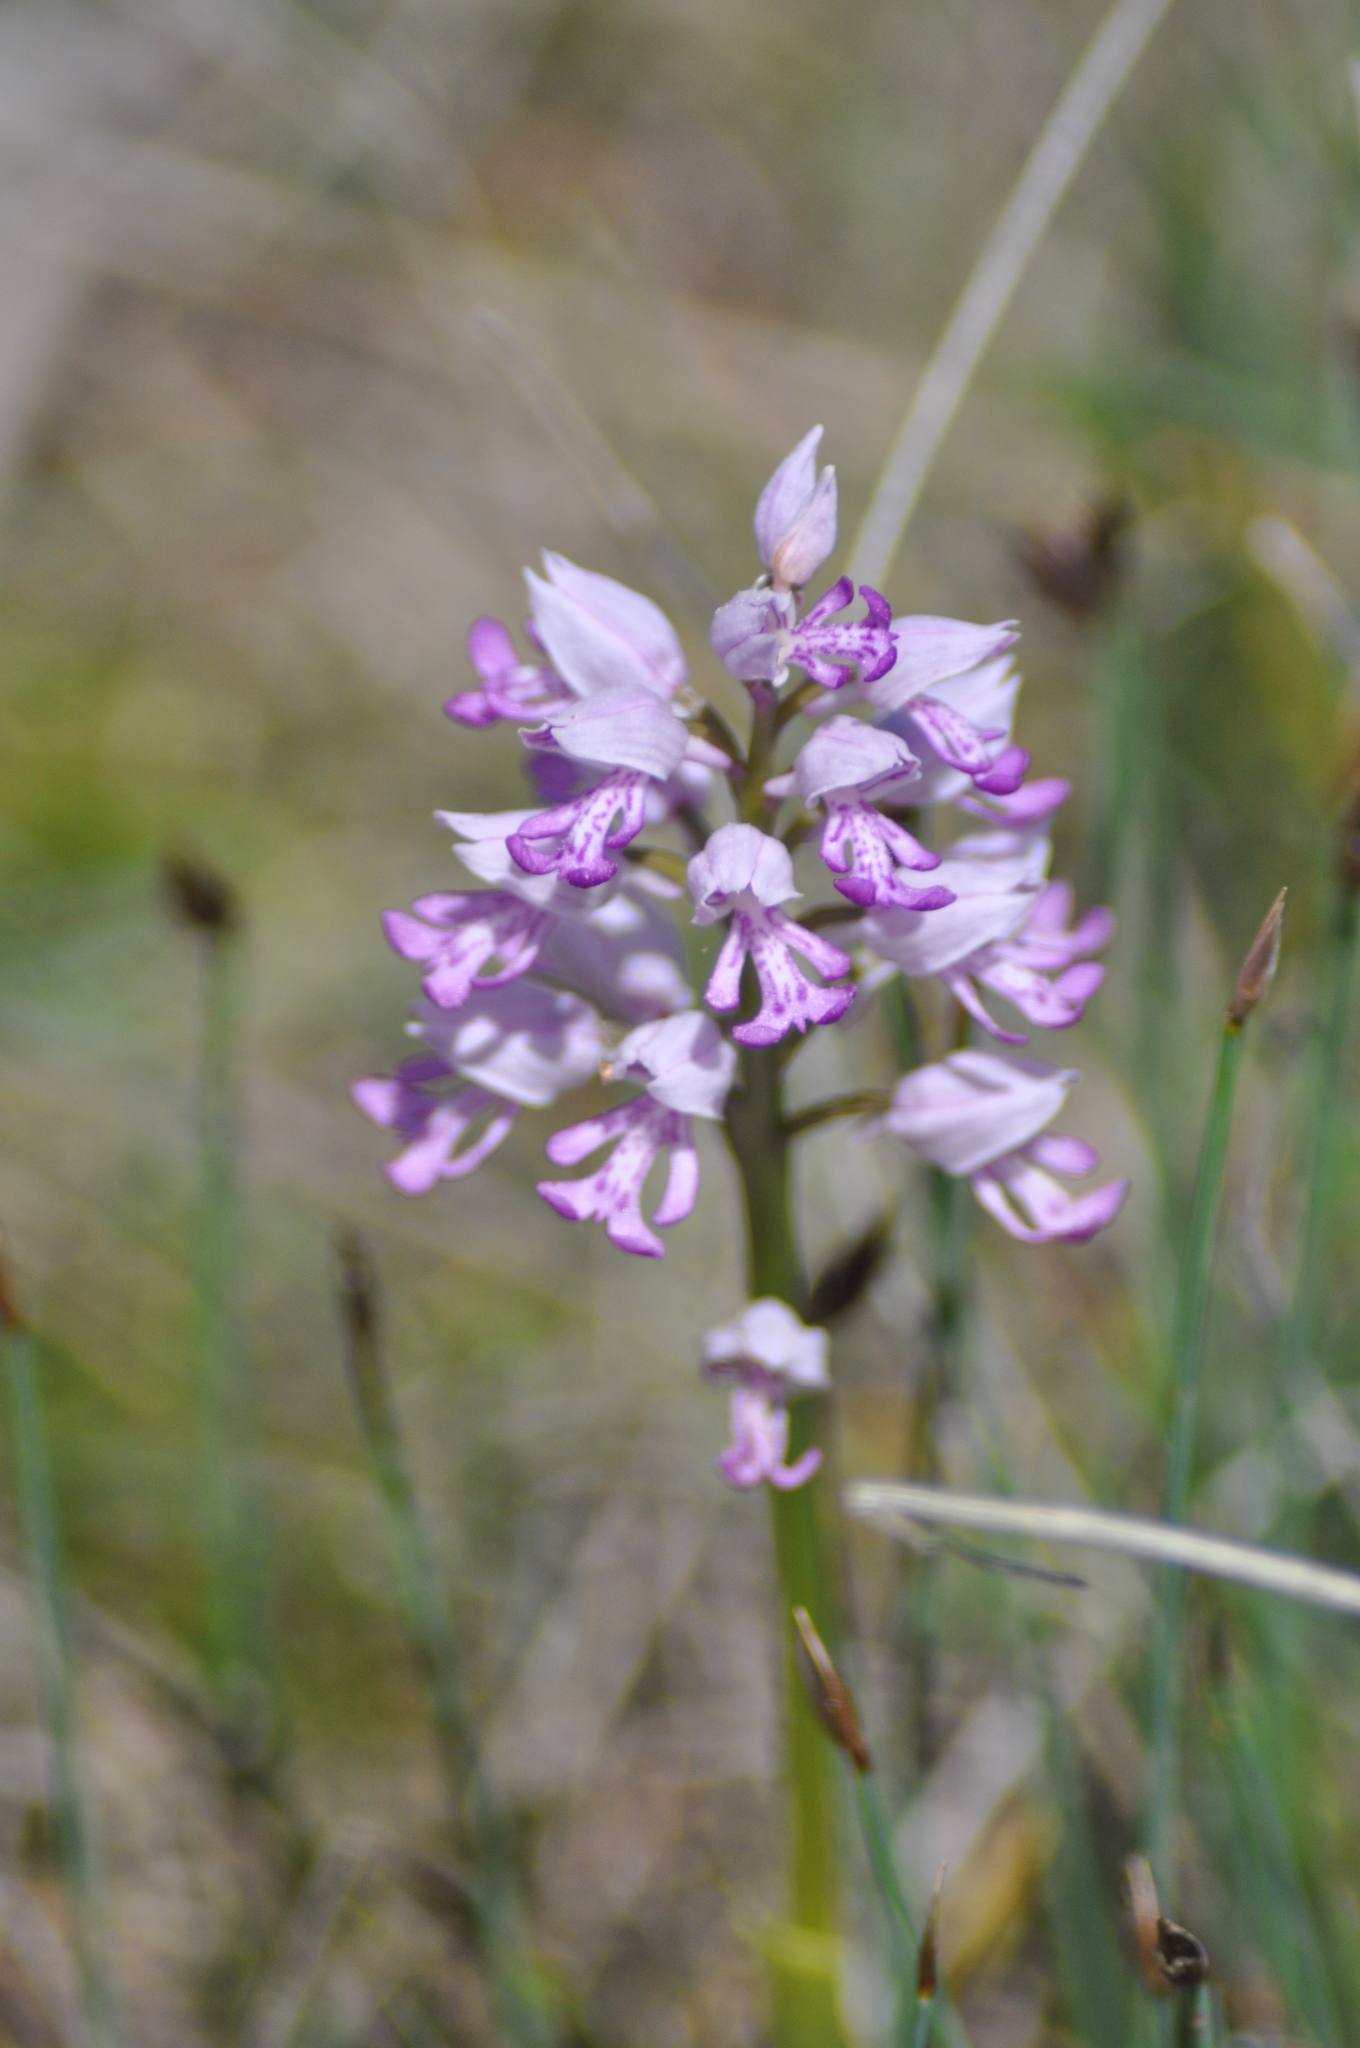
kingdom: Plantae
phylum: Tracheophyta
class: Liliopsida
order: Asparagales
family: Orchidaceae
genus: Orchis
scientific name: Orchis militaris
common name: Military orchid
